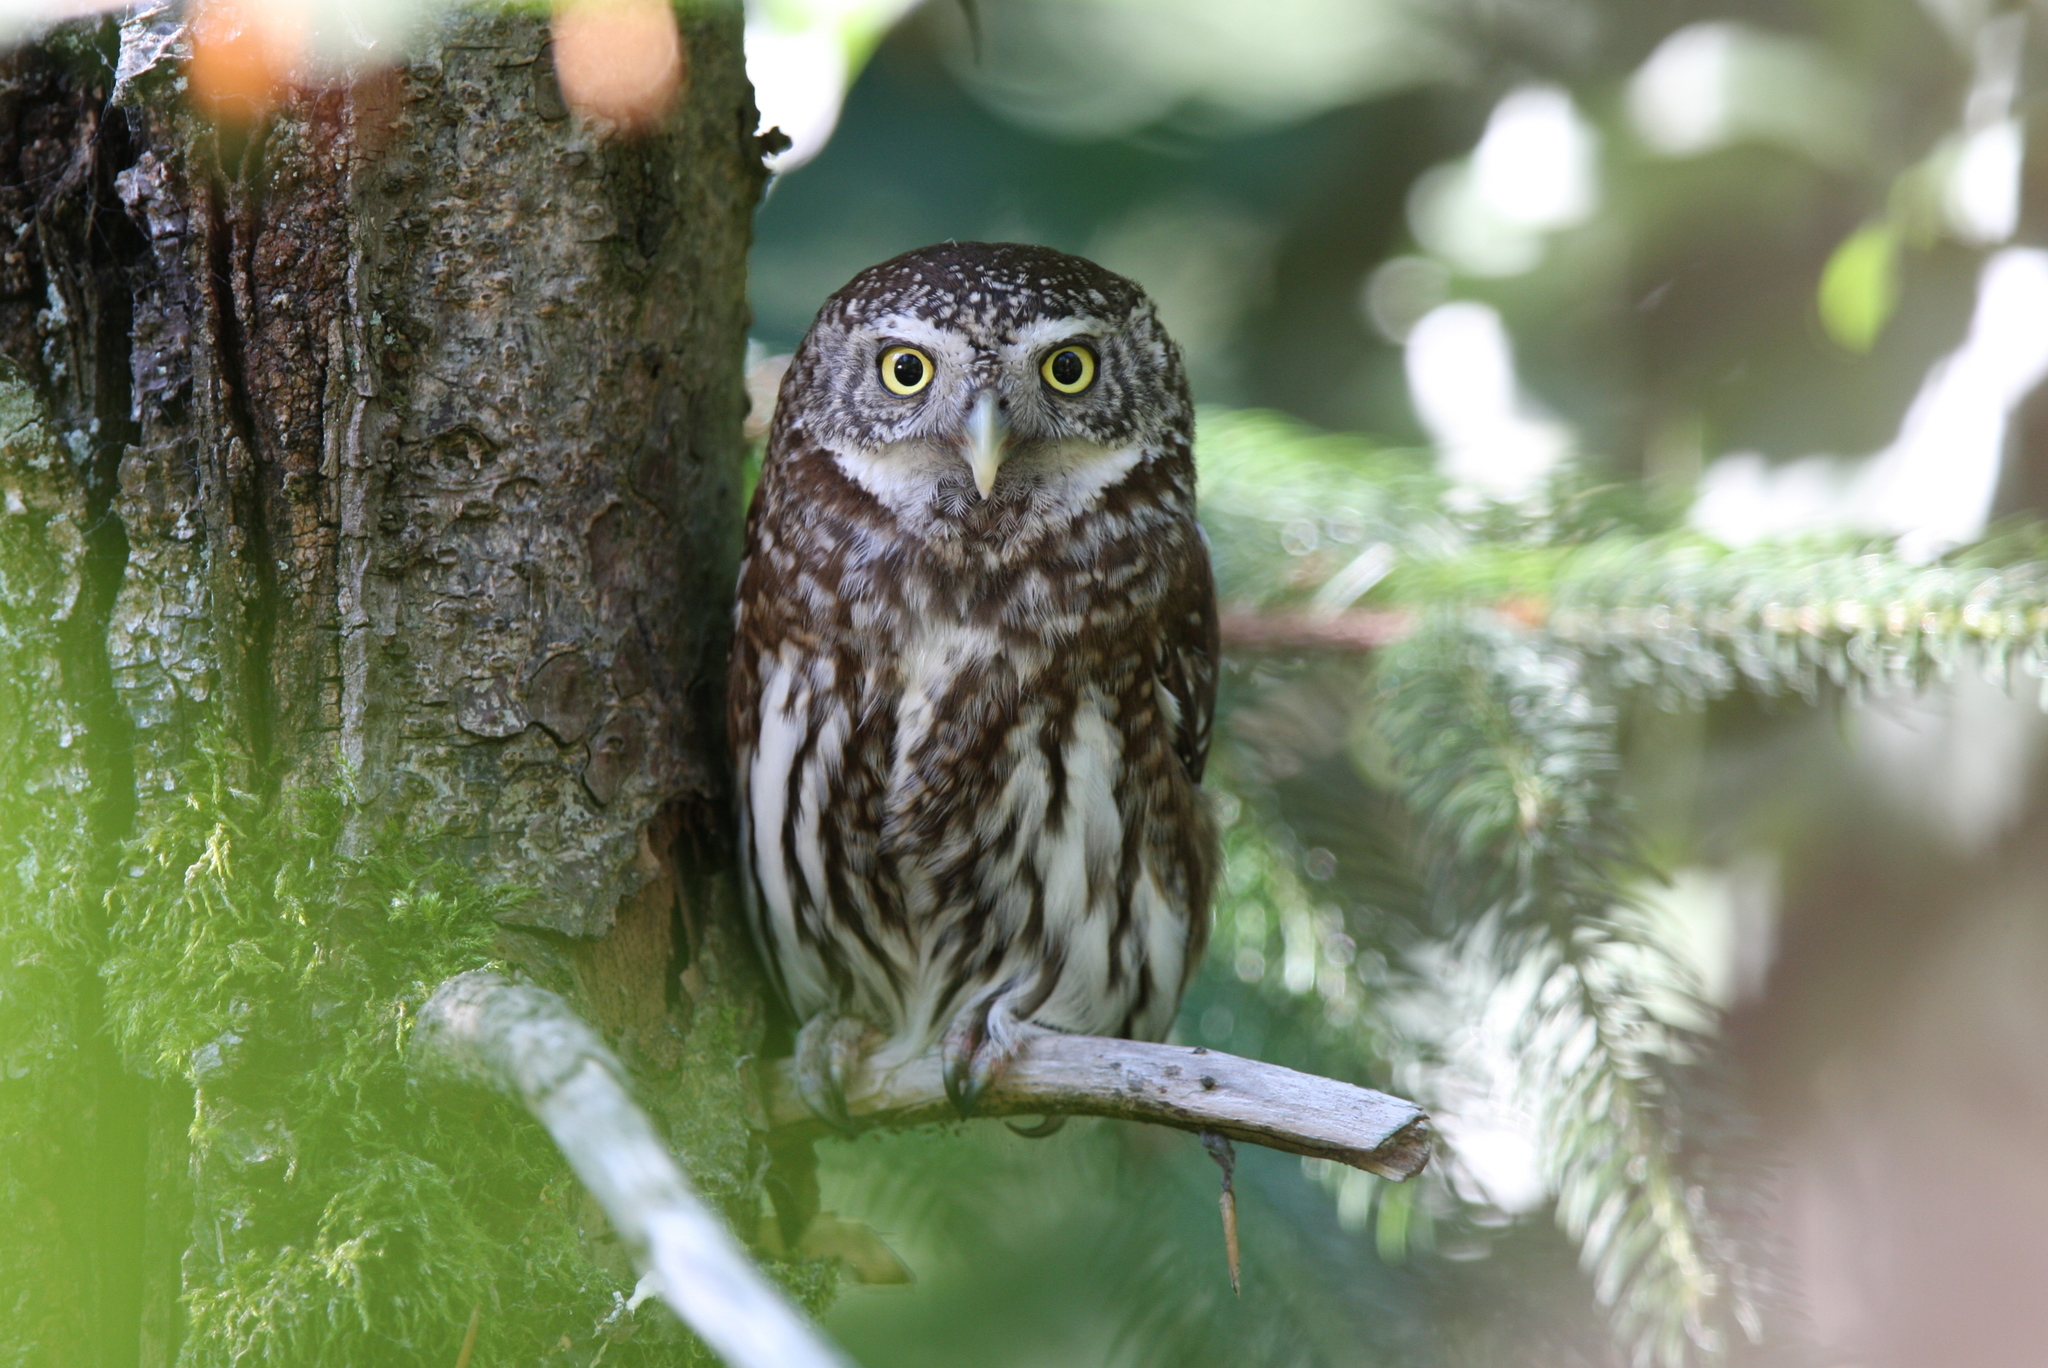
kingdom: Animalia
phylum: Chordata
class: Aves
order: Strigiformes
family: Strigidae
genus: Glaucidium
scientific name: Glaucidium passerinum
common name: Eurasian pygmy owl
